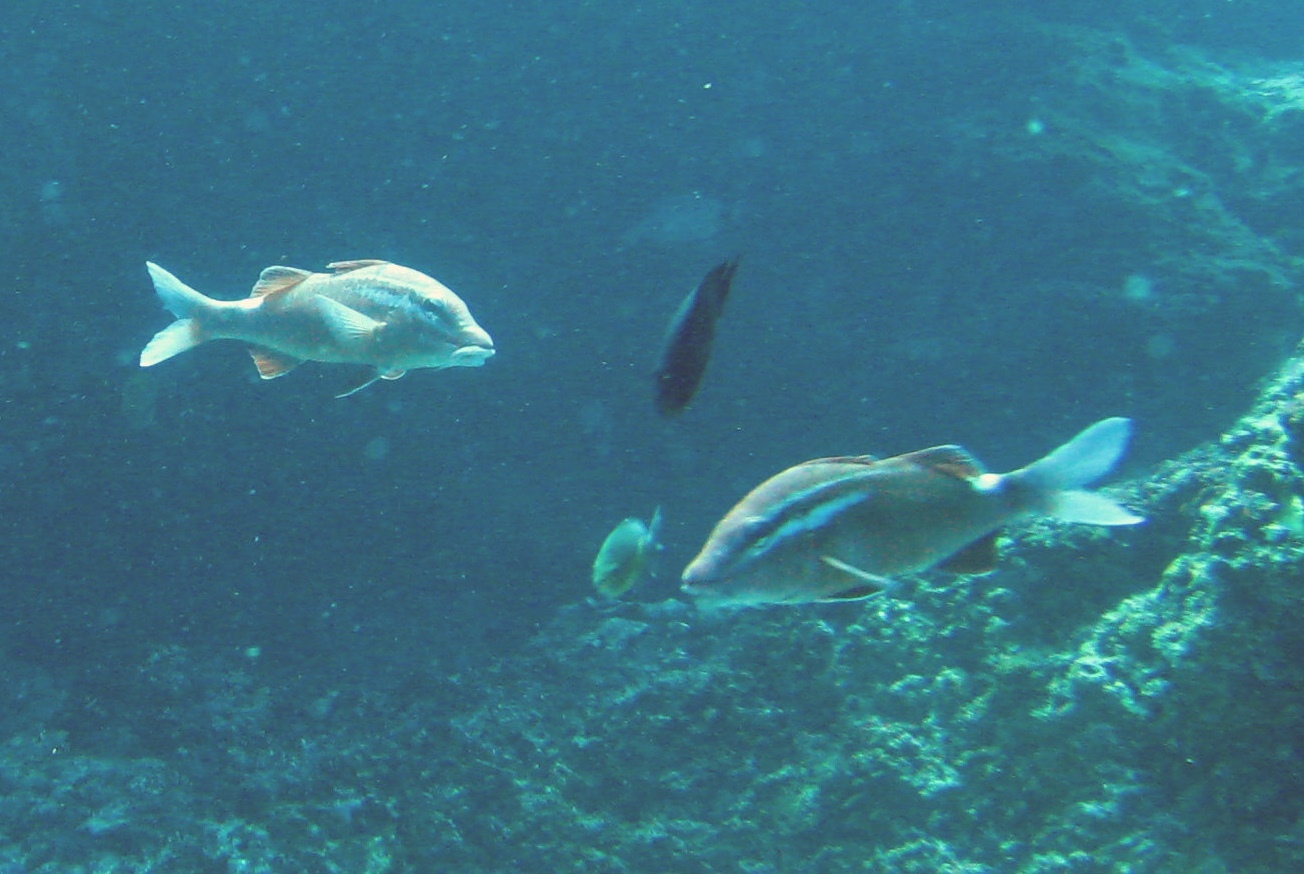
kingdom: Animalia
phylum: Chordata
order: Perciformes
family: Mullidae
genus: Parupeneus
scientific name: Parupeneus porphyreus
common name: Whitesaddle goatfish
